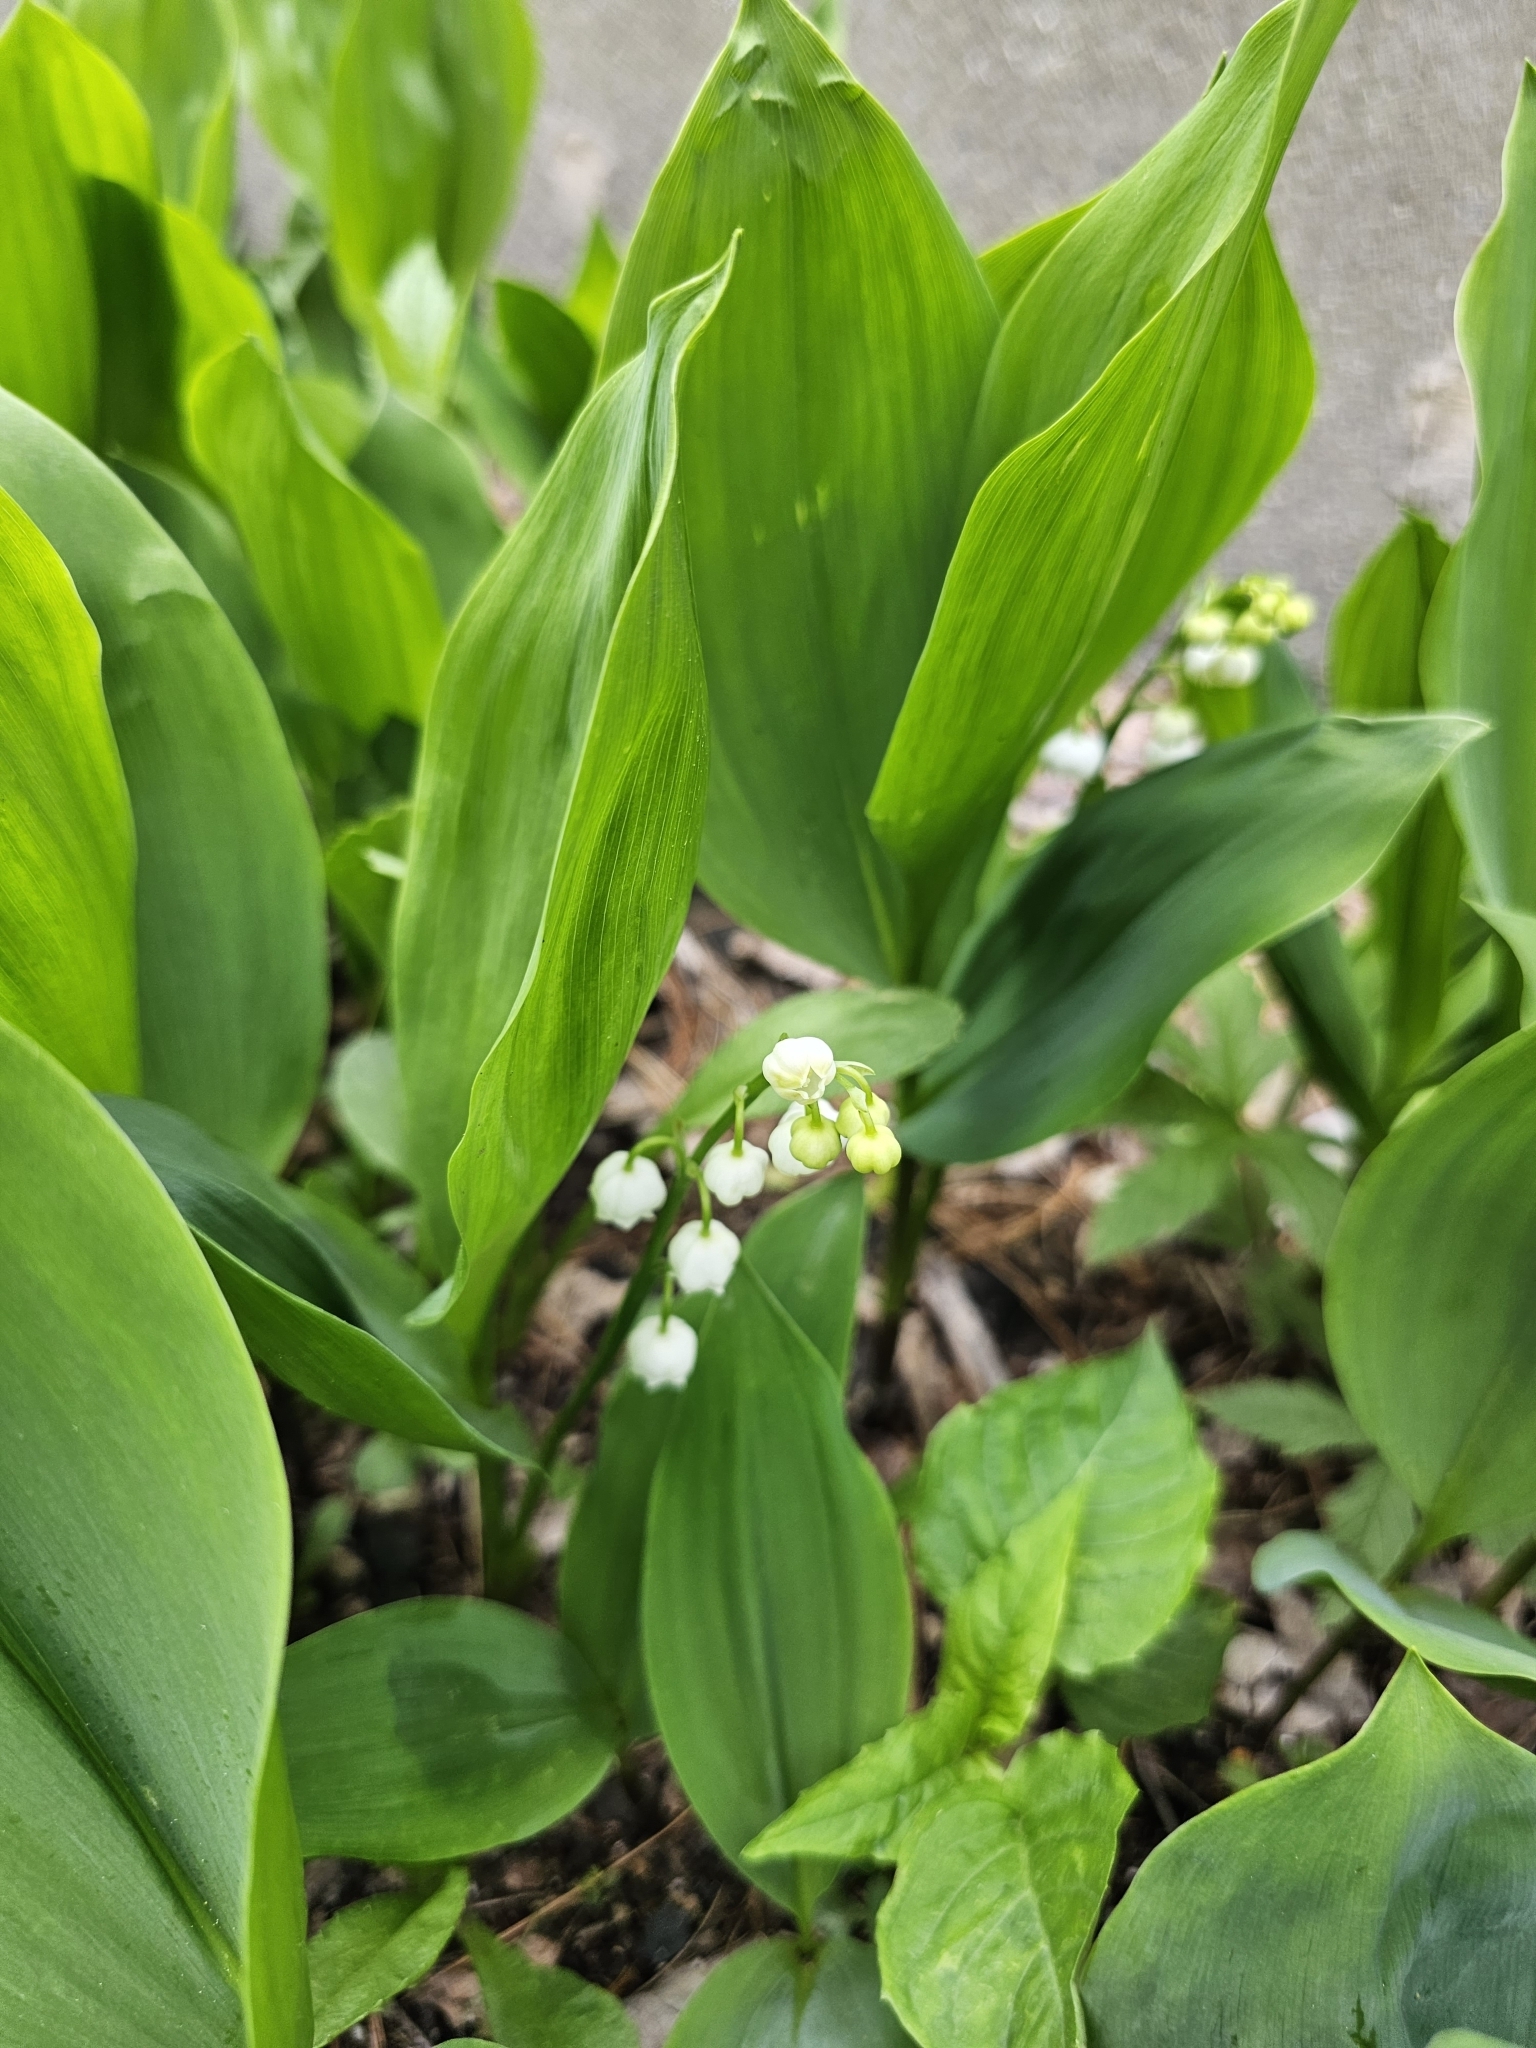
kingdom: Plantae
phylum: Tracheophyta
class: Liliopsida
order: Asparagales
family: Asparagaceae
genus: Convallaria
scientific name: Convallaria majalis
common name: Lily-of-the-valley
